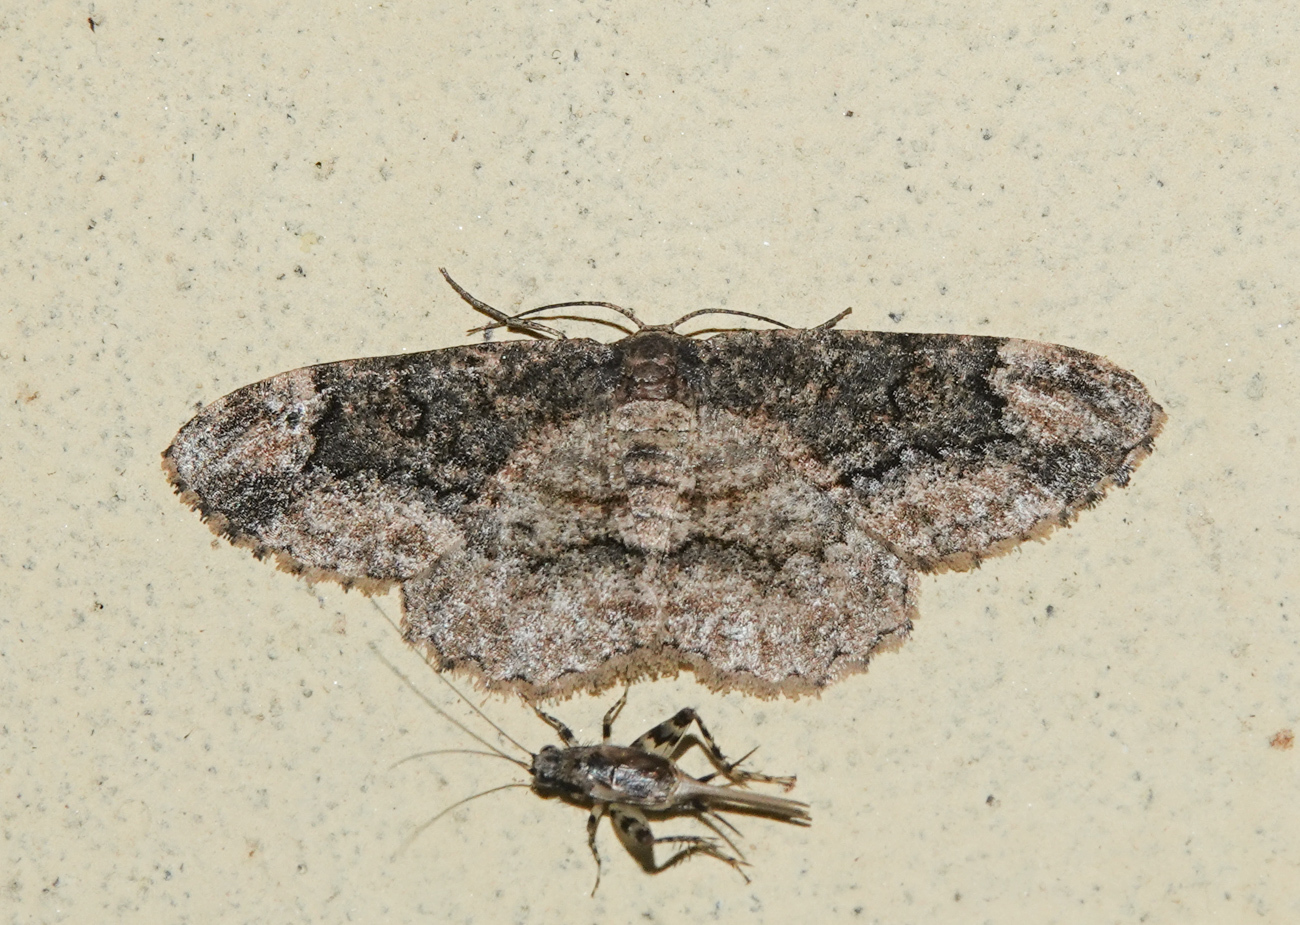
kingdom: Animalia
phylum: Arthropoda
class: Insecta
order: Lepidoptera
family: Geometridae
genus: Parapholodes
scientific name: Parapholodes
